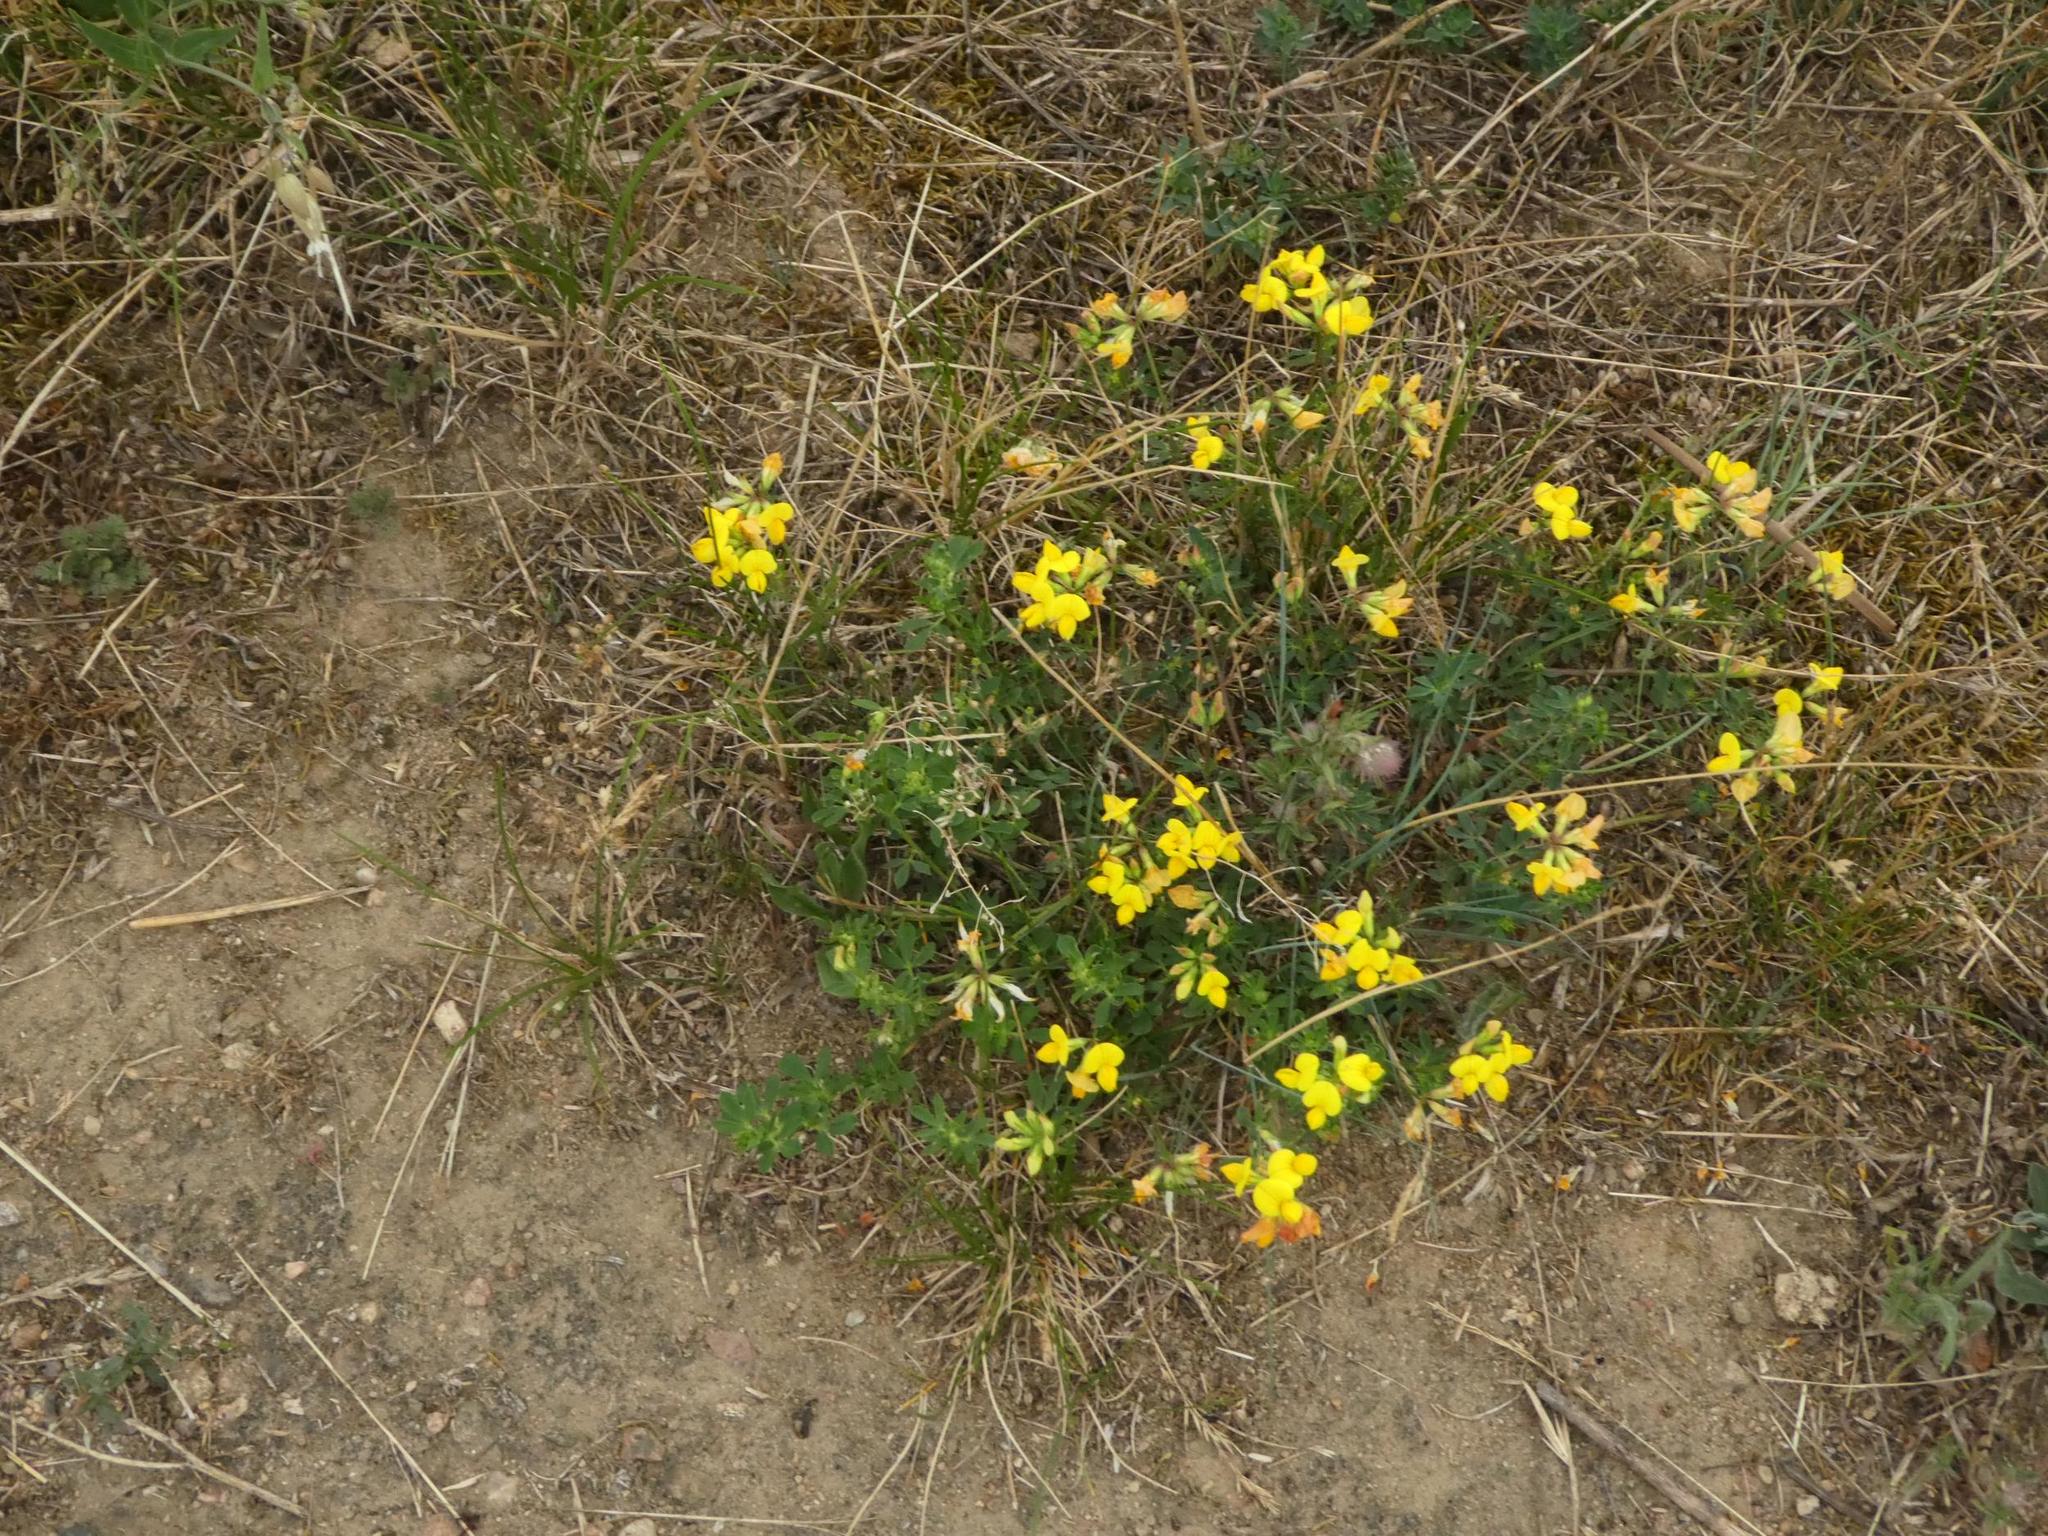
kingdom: Plantae
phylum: Tracheophyta
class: Magnoliopsida
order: Fabales
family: Fabaceae
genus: Lotus
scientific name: Lotus corniculatus
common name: Common bird's-foot-trefoil
